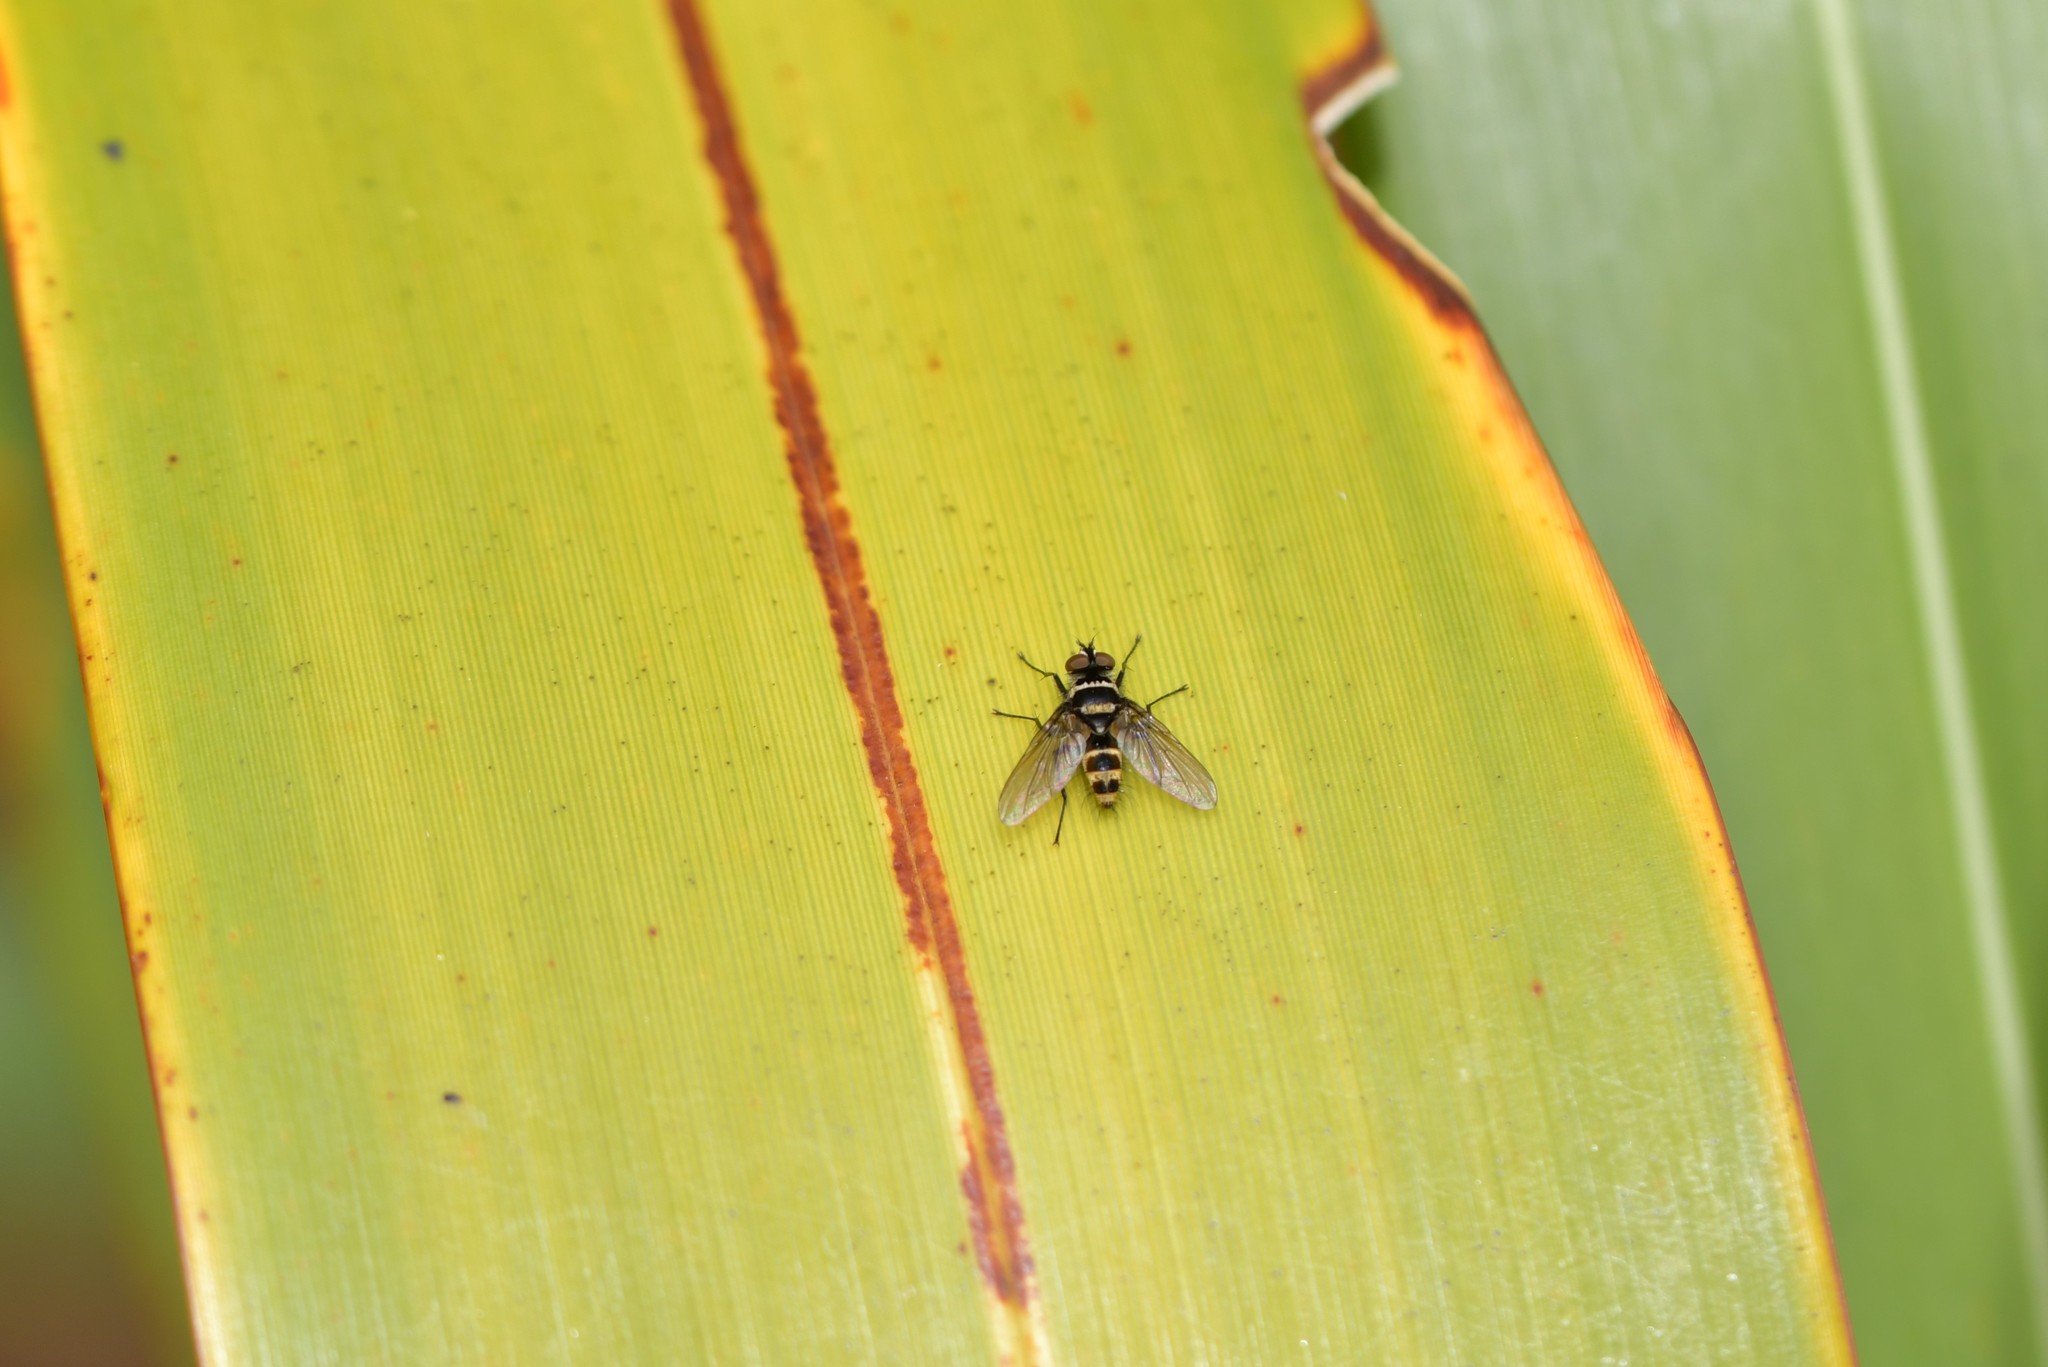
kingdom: Animalia
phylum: Arthropoda
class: Insecta
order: Diptera
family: Tachinidae
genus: Trigonospila
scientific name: Trigonospila brevifacies
